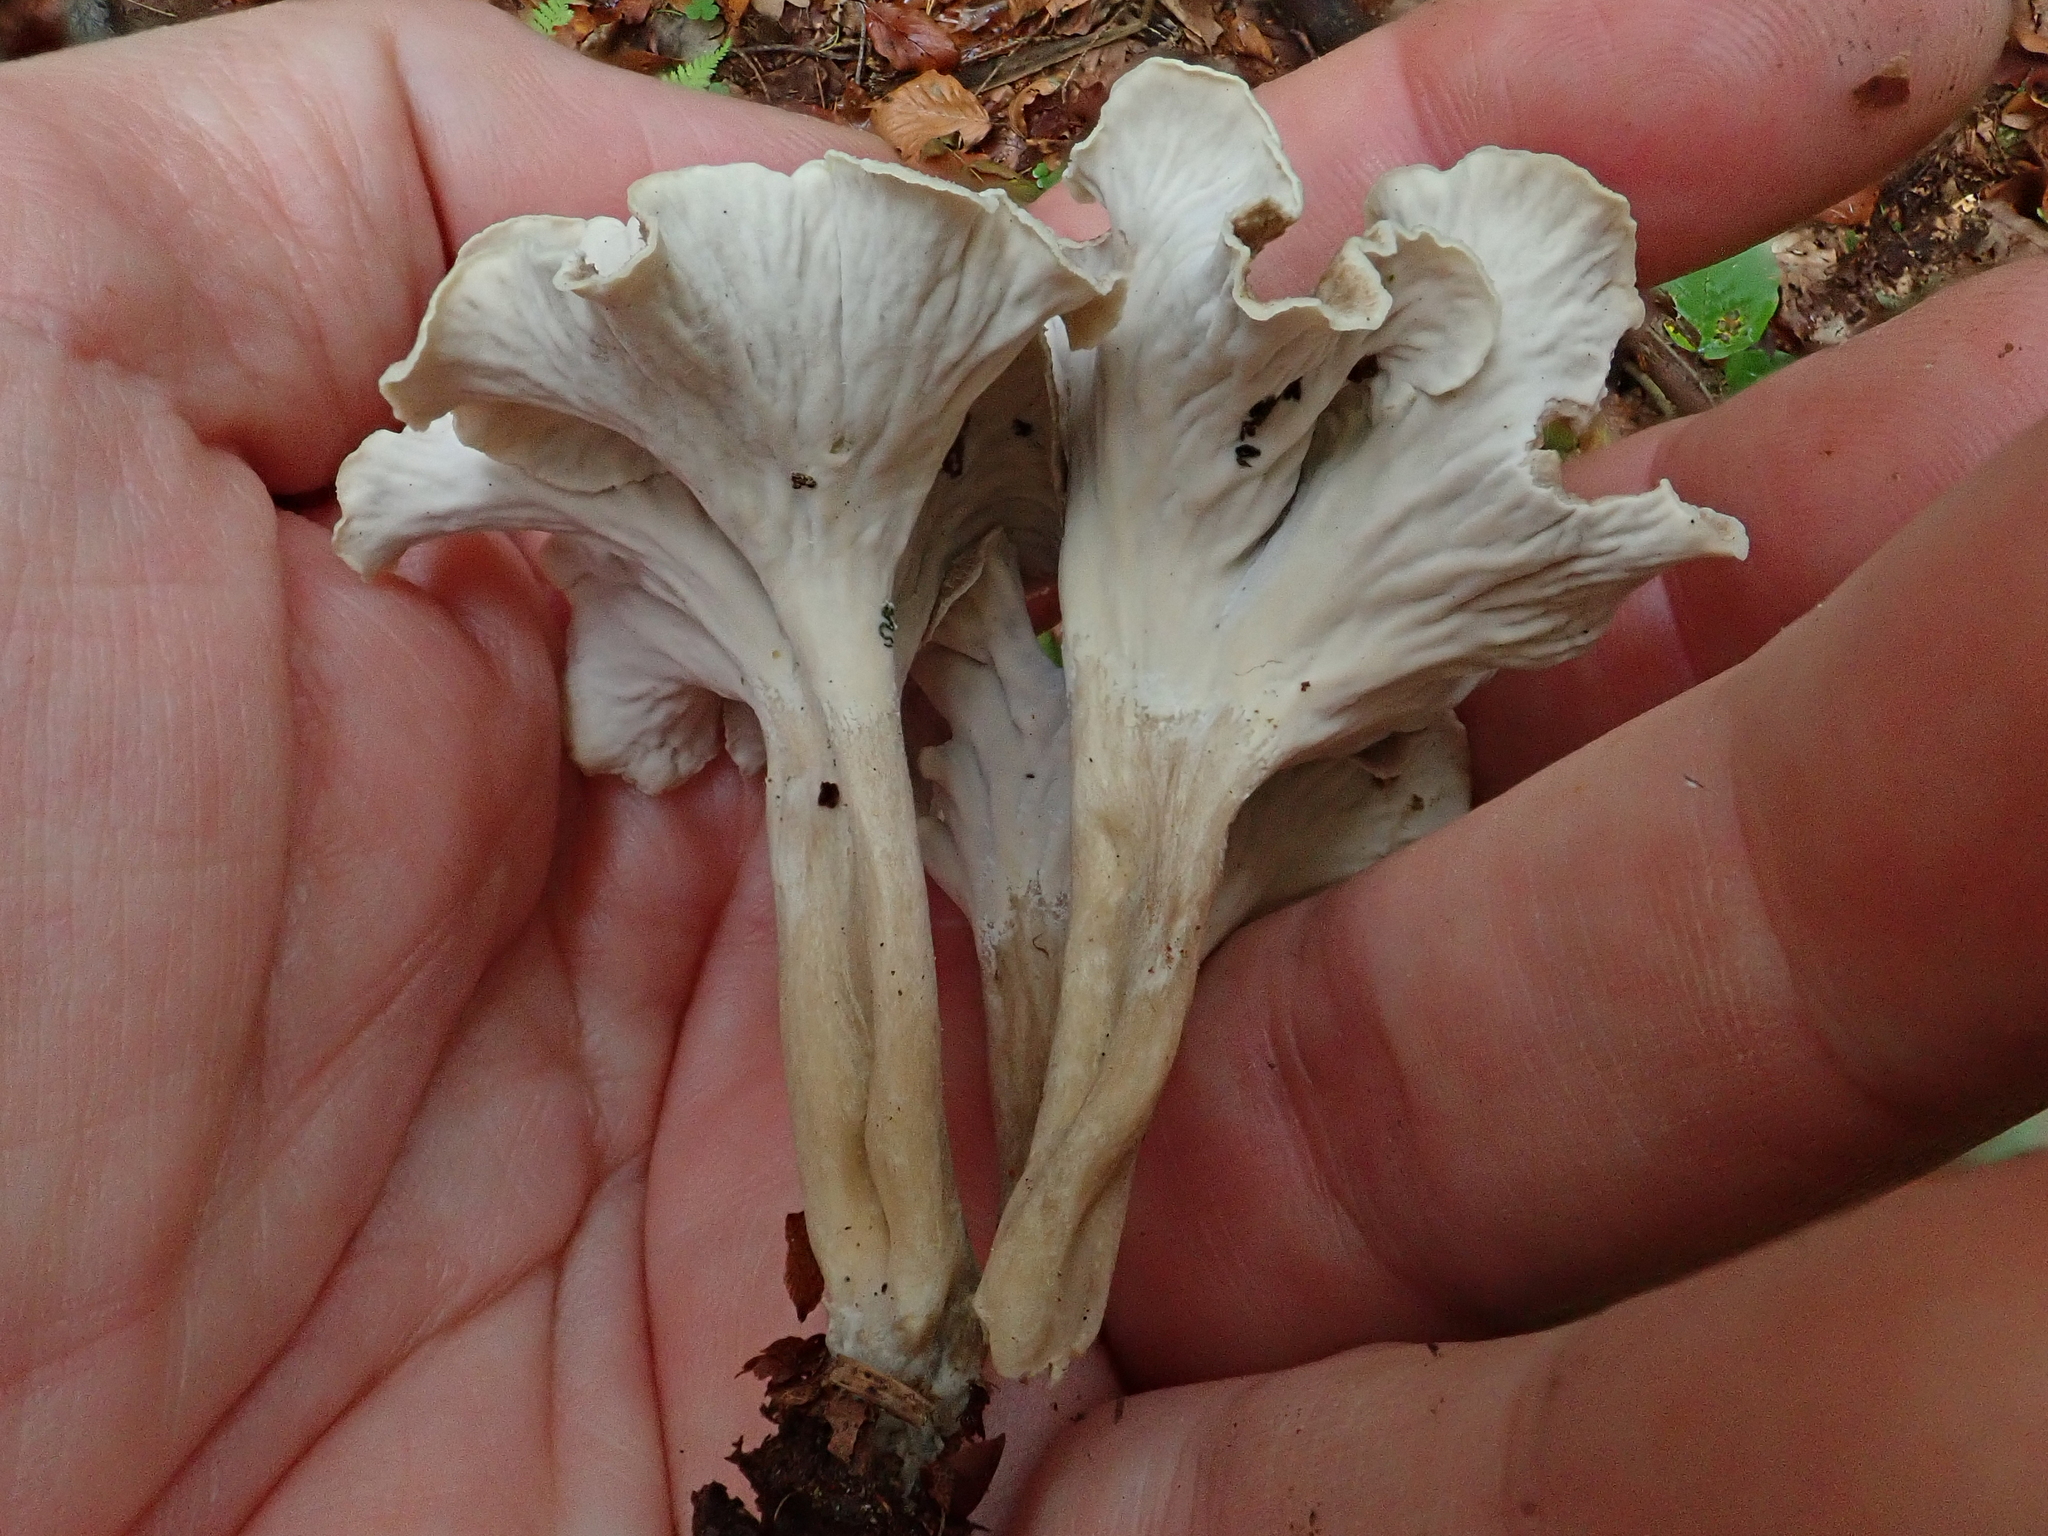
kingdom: Fungi
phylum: Basidiomycota
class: Agaricomycetes
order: Cantharellales
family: Hydnaceae
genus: Craterellus
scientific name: Craterellus undulatus
